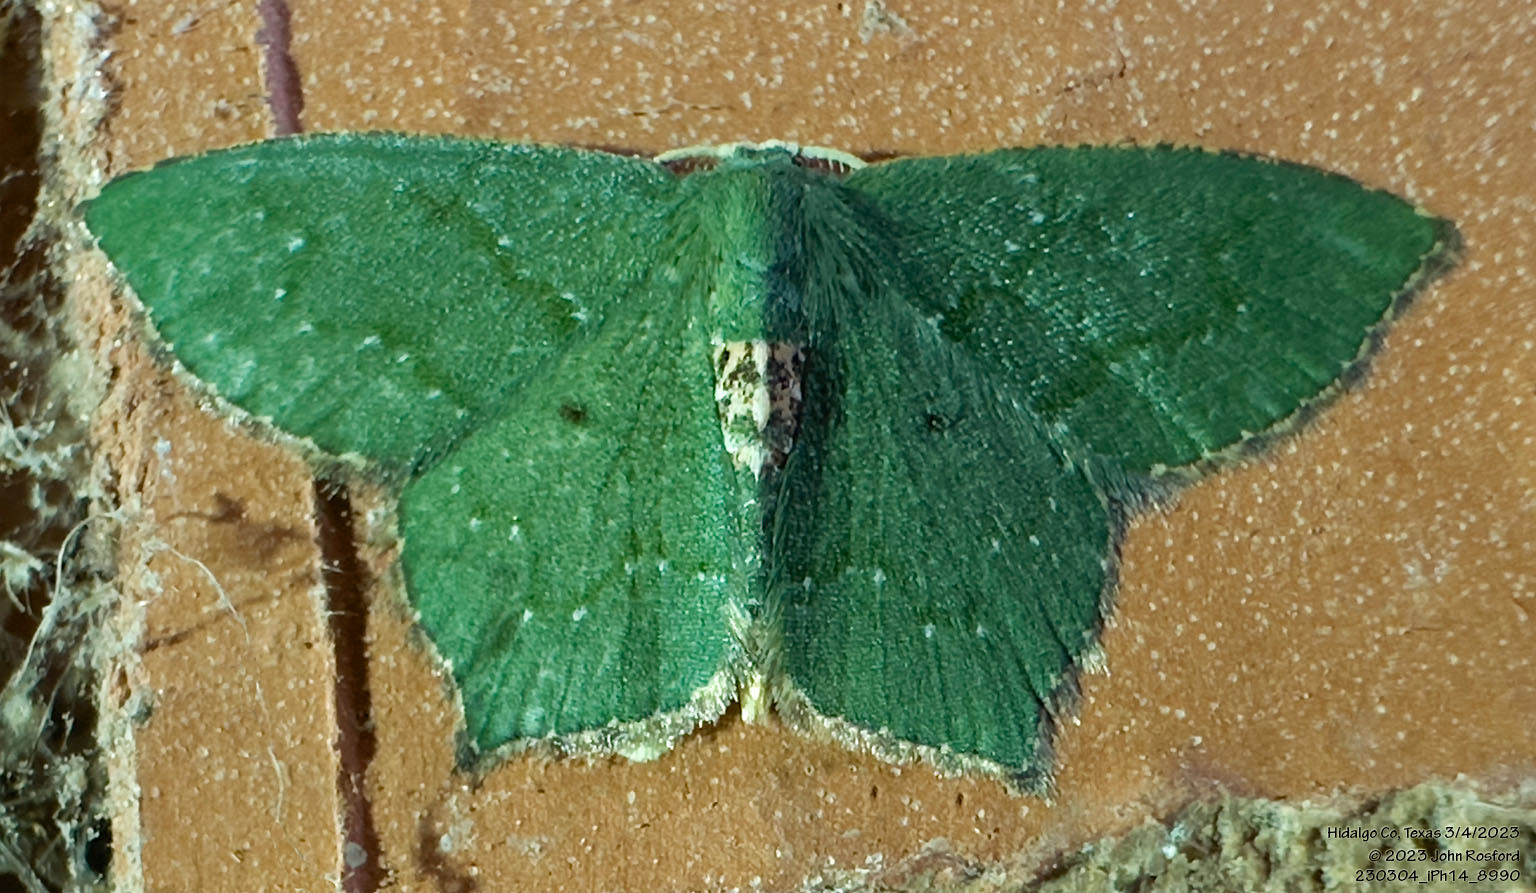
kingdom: Animalia
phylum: Arthropoda
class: Insecta
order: Lepidoptera
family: Geometridae
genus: Chloropteryx
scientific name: Chloropteryx nordicaria
